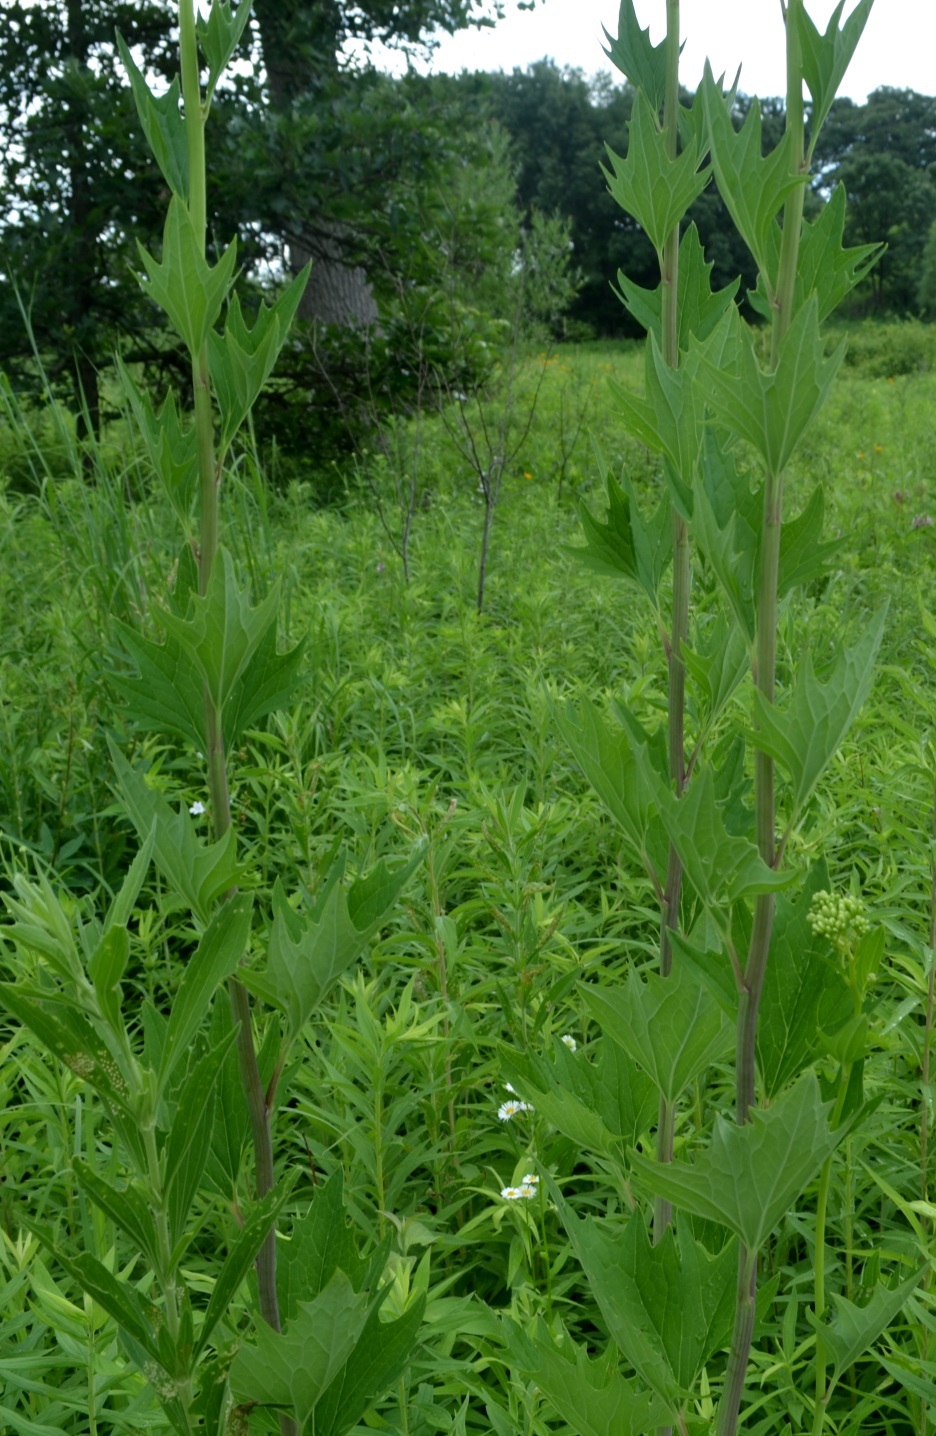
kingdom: Plantae
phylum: Tracheophyta
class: Magnoliopsida
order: Asterales
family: Asteraceae
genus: Arnoglossum
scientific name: Arnoglossum atriplicifolium
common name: Pale indian-plantain
